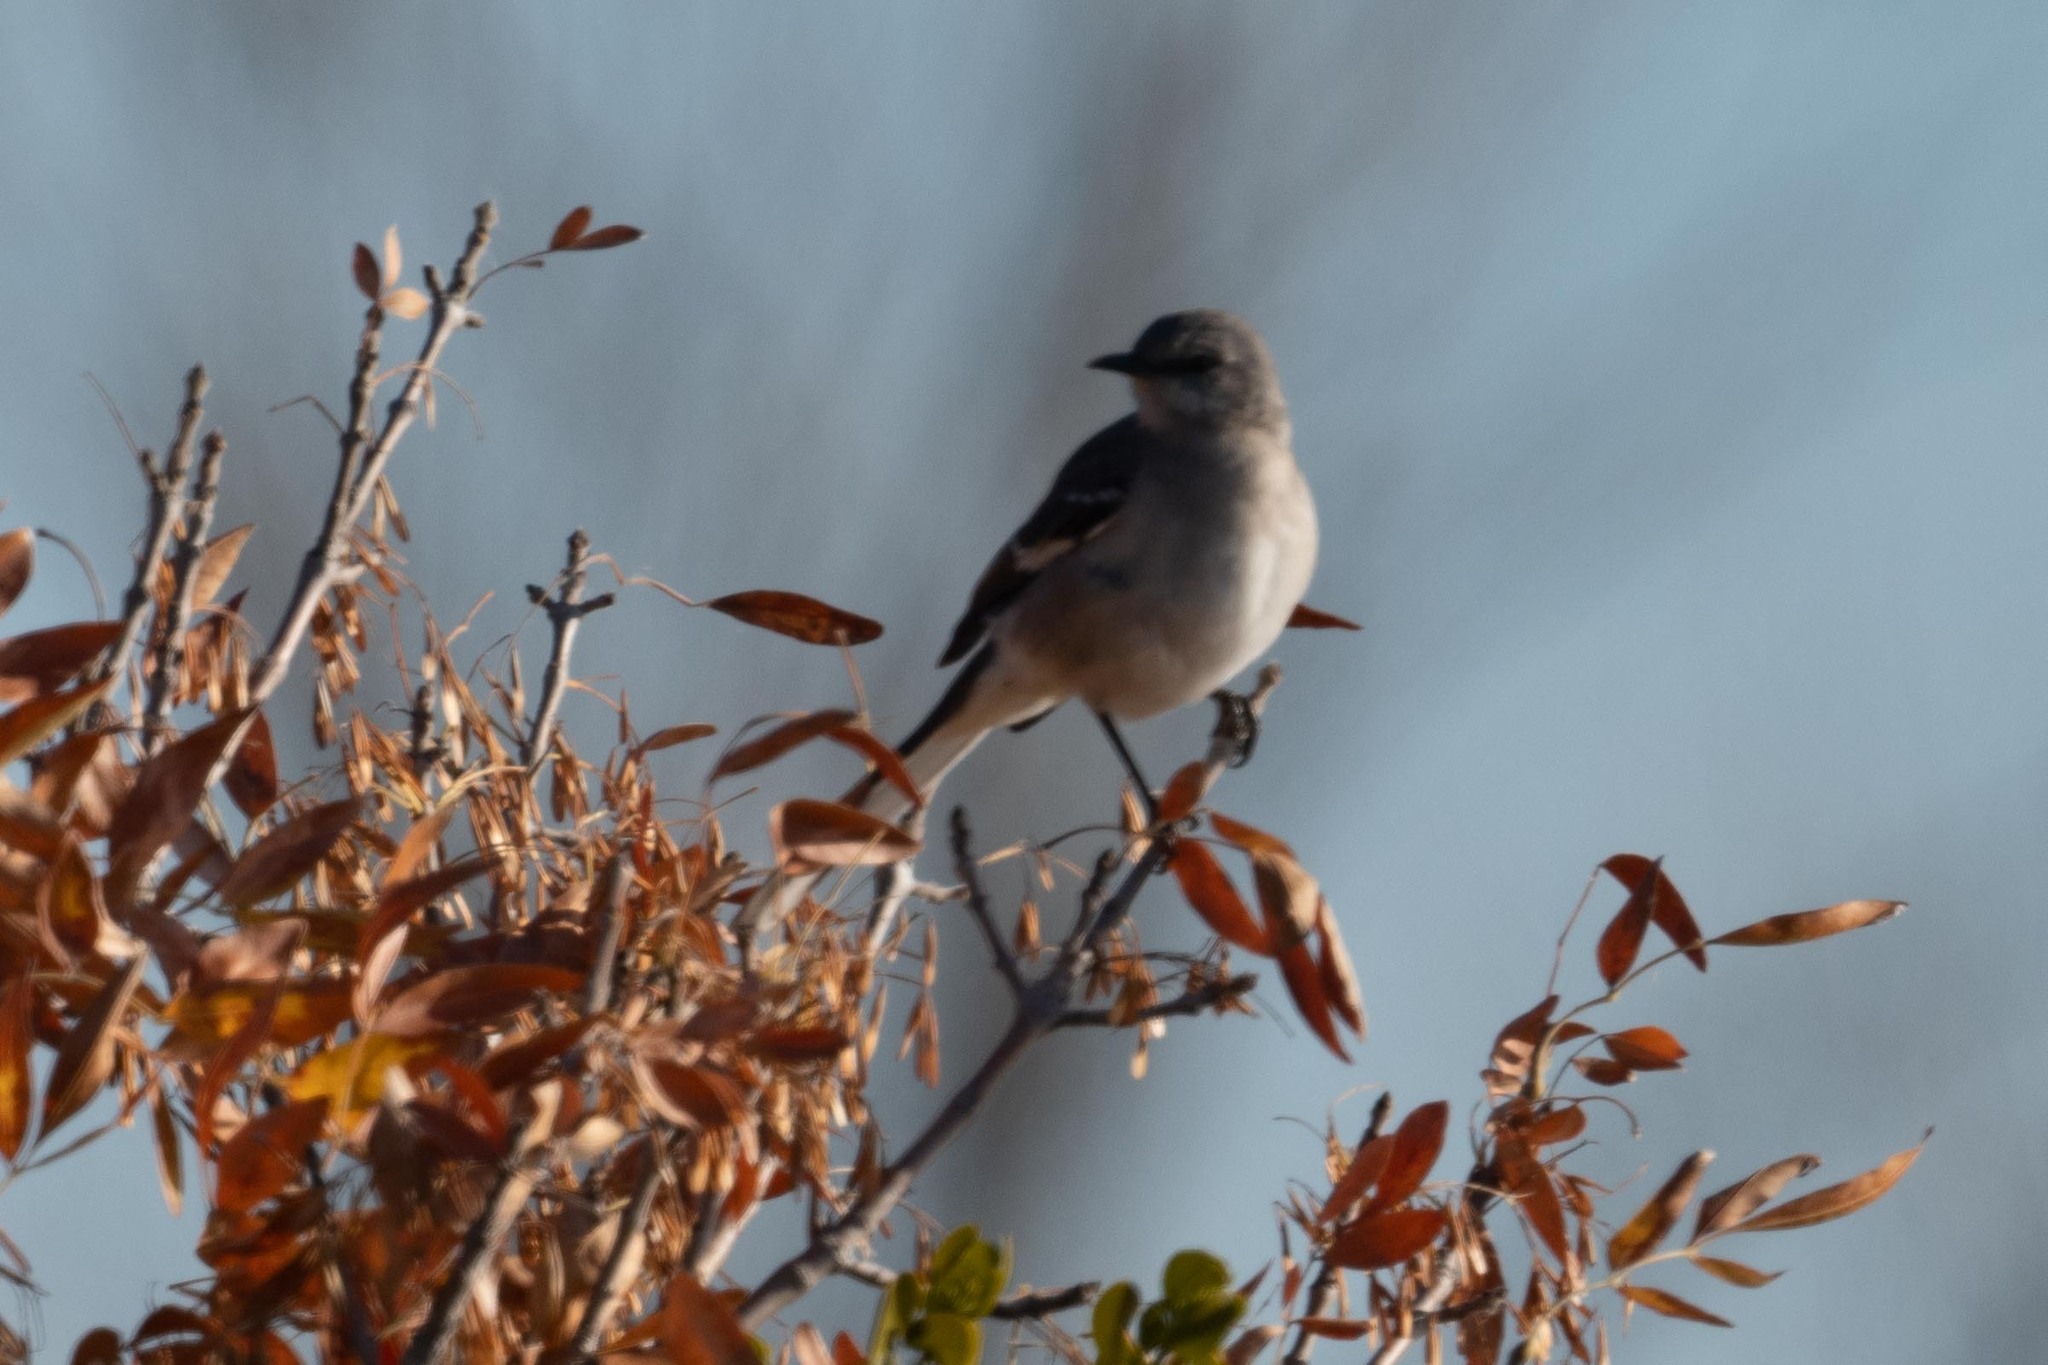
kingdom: Animalia
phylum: Chordata
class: Aves
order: Passeriformes
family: Mimidae
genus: Mimus
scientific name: Mimus polyglottos
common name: Northern mockingbird
